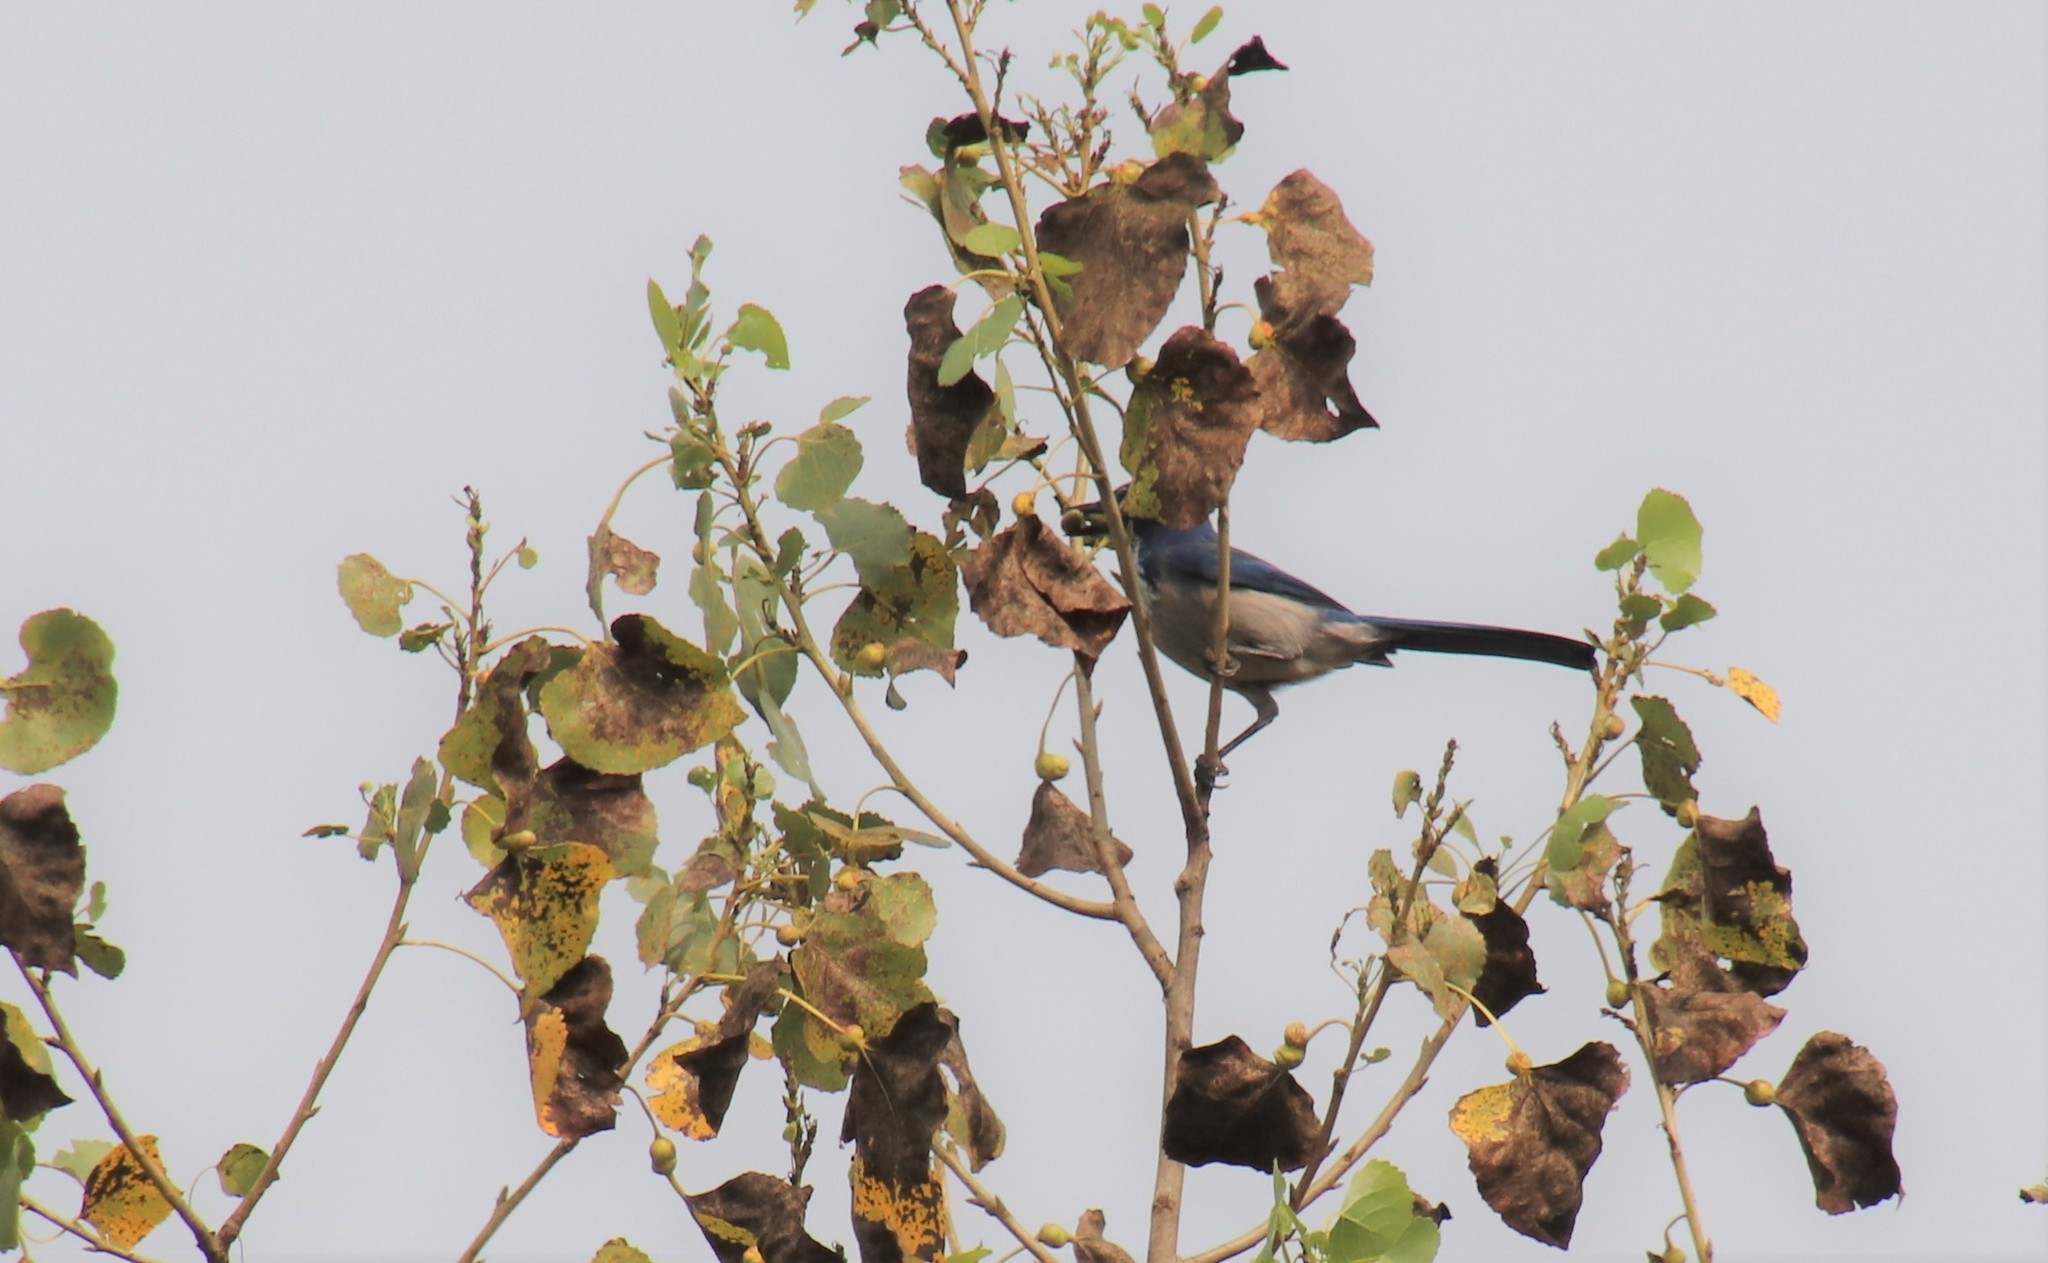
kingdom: Animalia
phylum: Arthropoda
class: Insecta
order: Hemiptera
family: Aphididae
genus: Pemphigus
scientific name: Pemphigus obesinymphae
